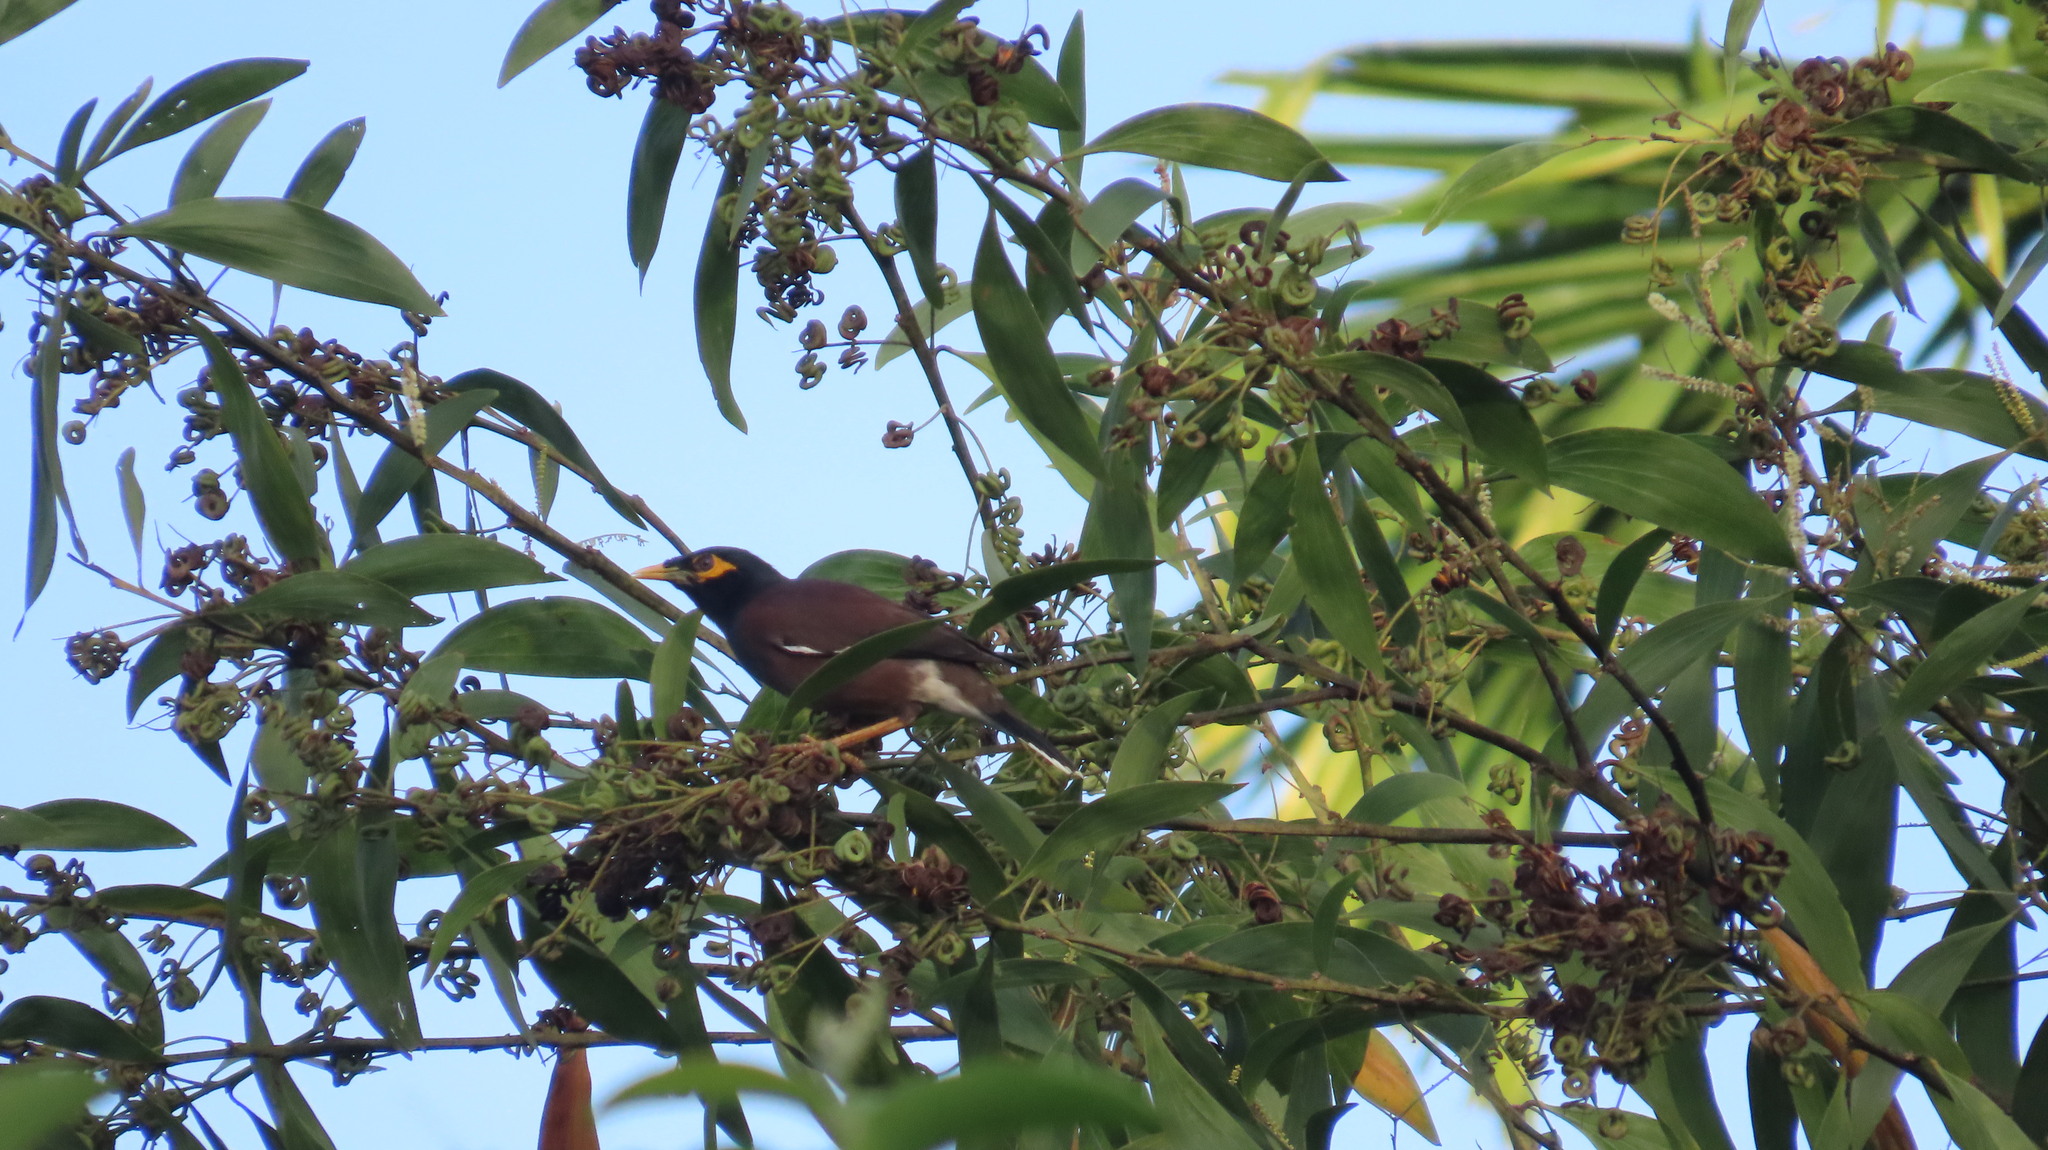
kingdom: Animalia
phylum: Chordata
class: Aves
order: Passeriformes
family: Sturnidae
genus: Acridotheres
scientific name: Acridotheres tristis
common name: Common myna
